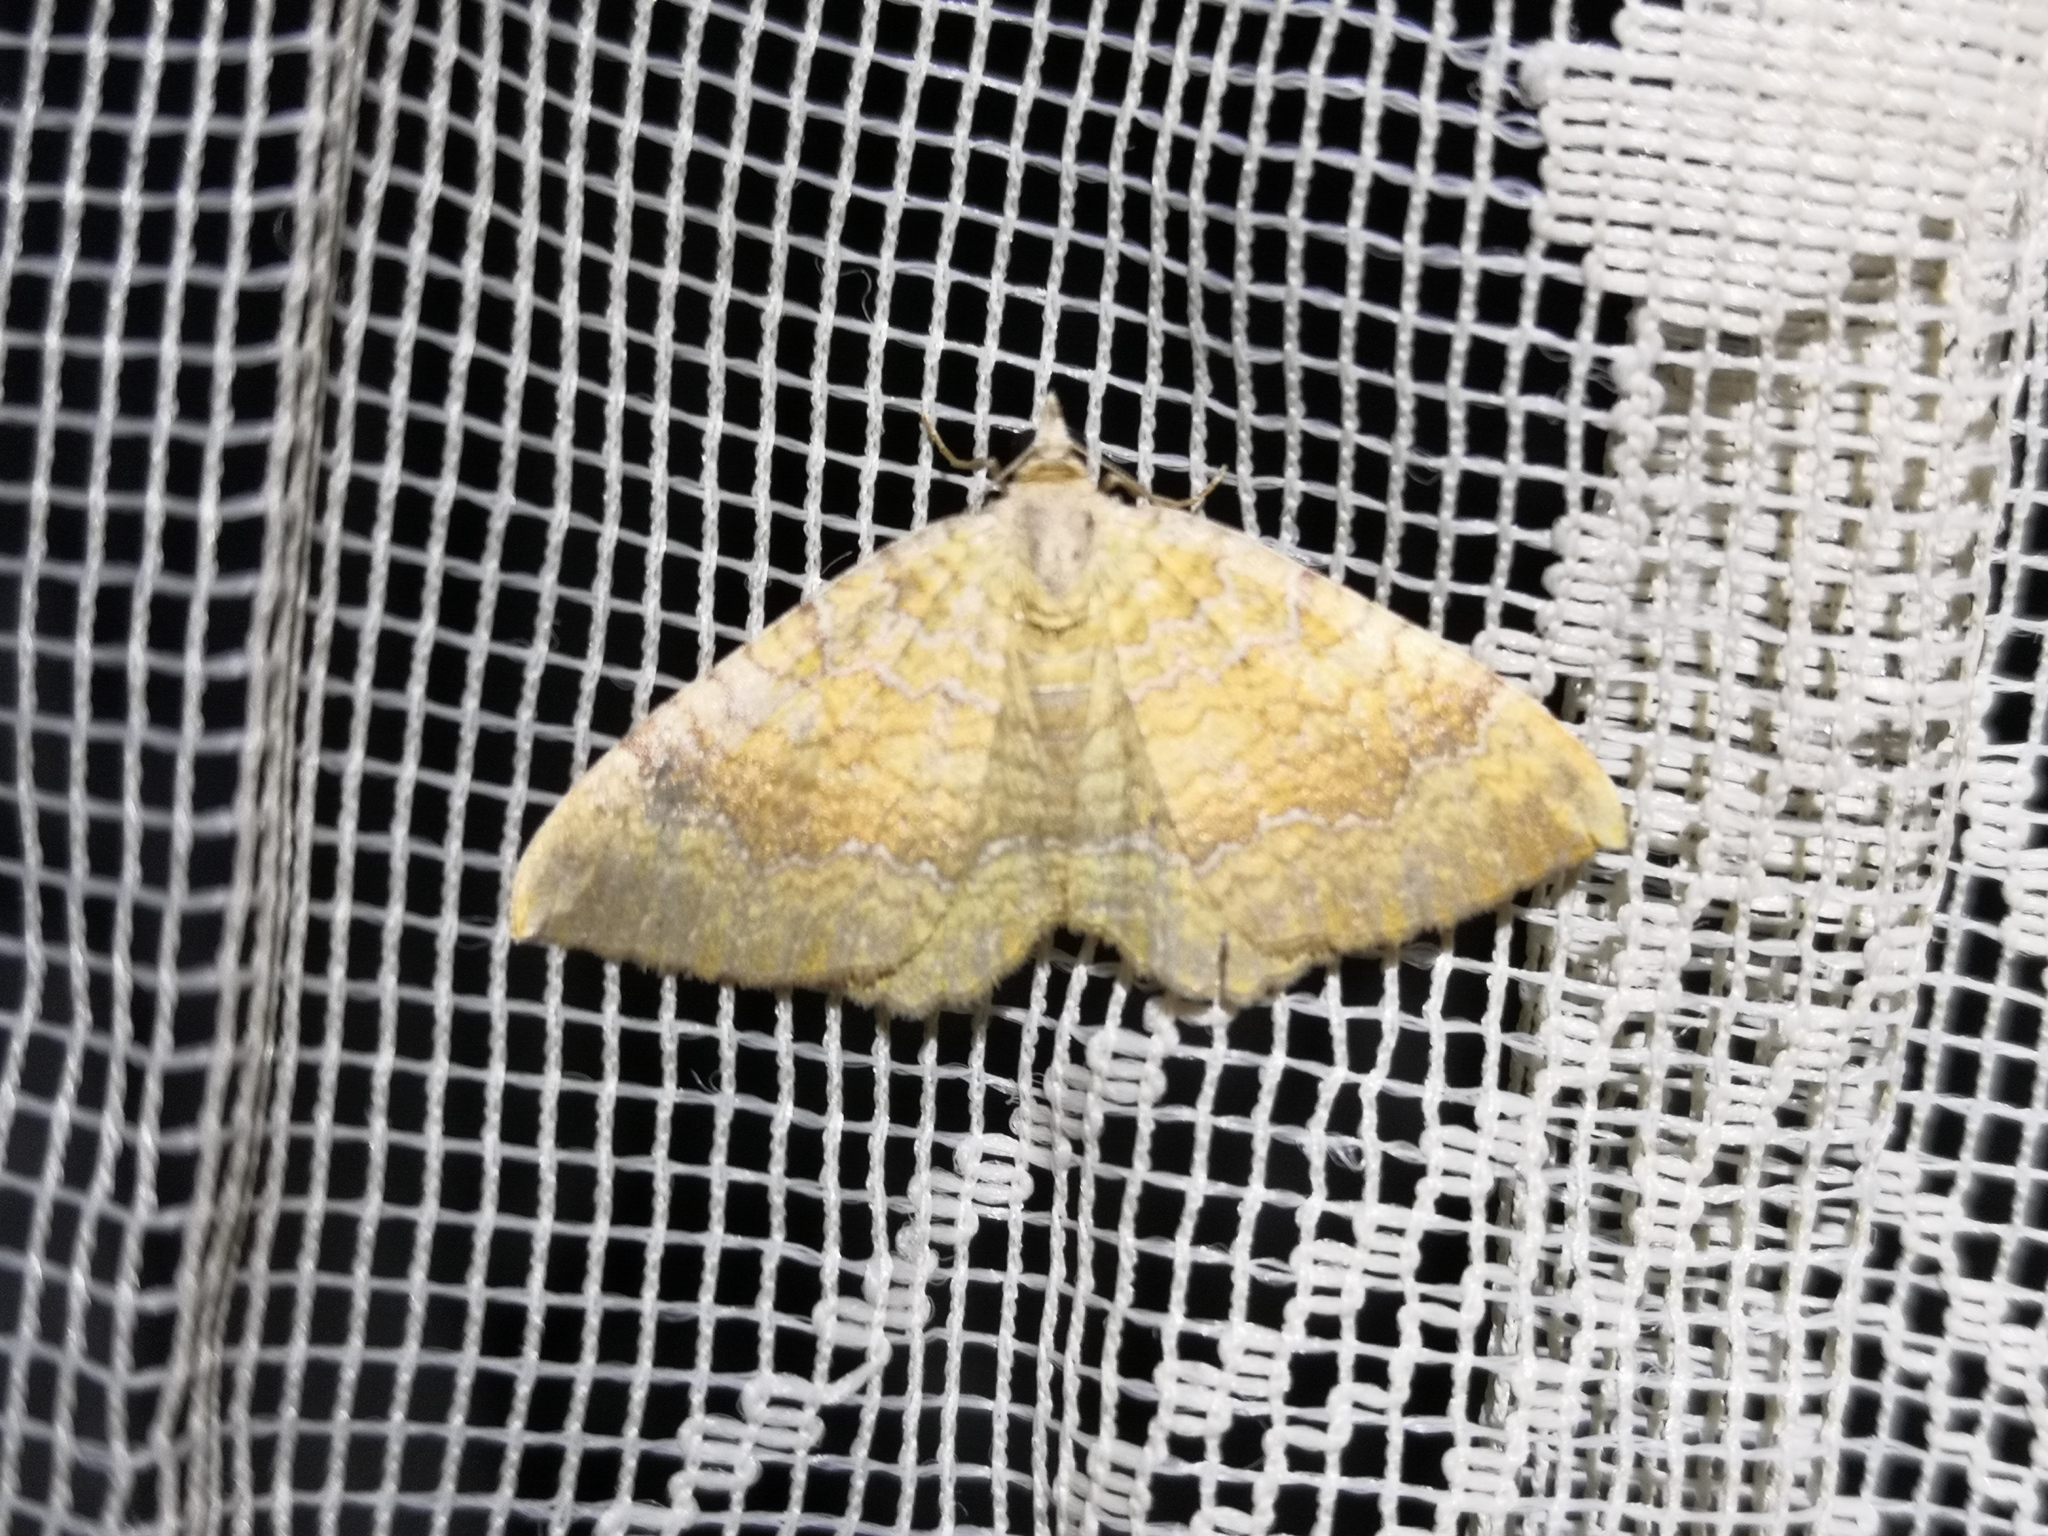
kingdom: Animalia
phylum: Arthropoda
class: Insecta
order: Lepidoptera
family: Geometridae
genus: Camptogramma
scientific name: Camptogramma bilineata
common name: Yellow shell
